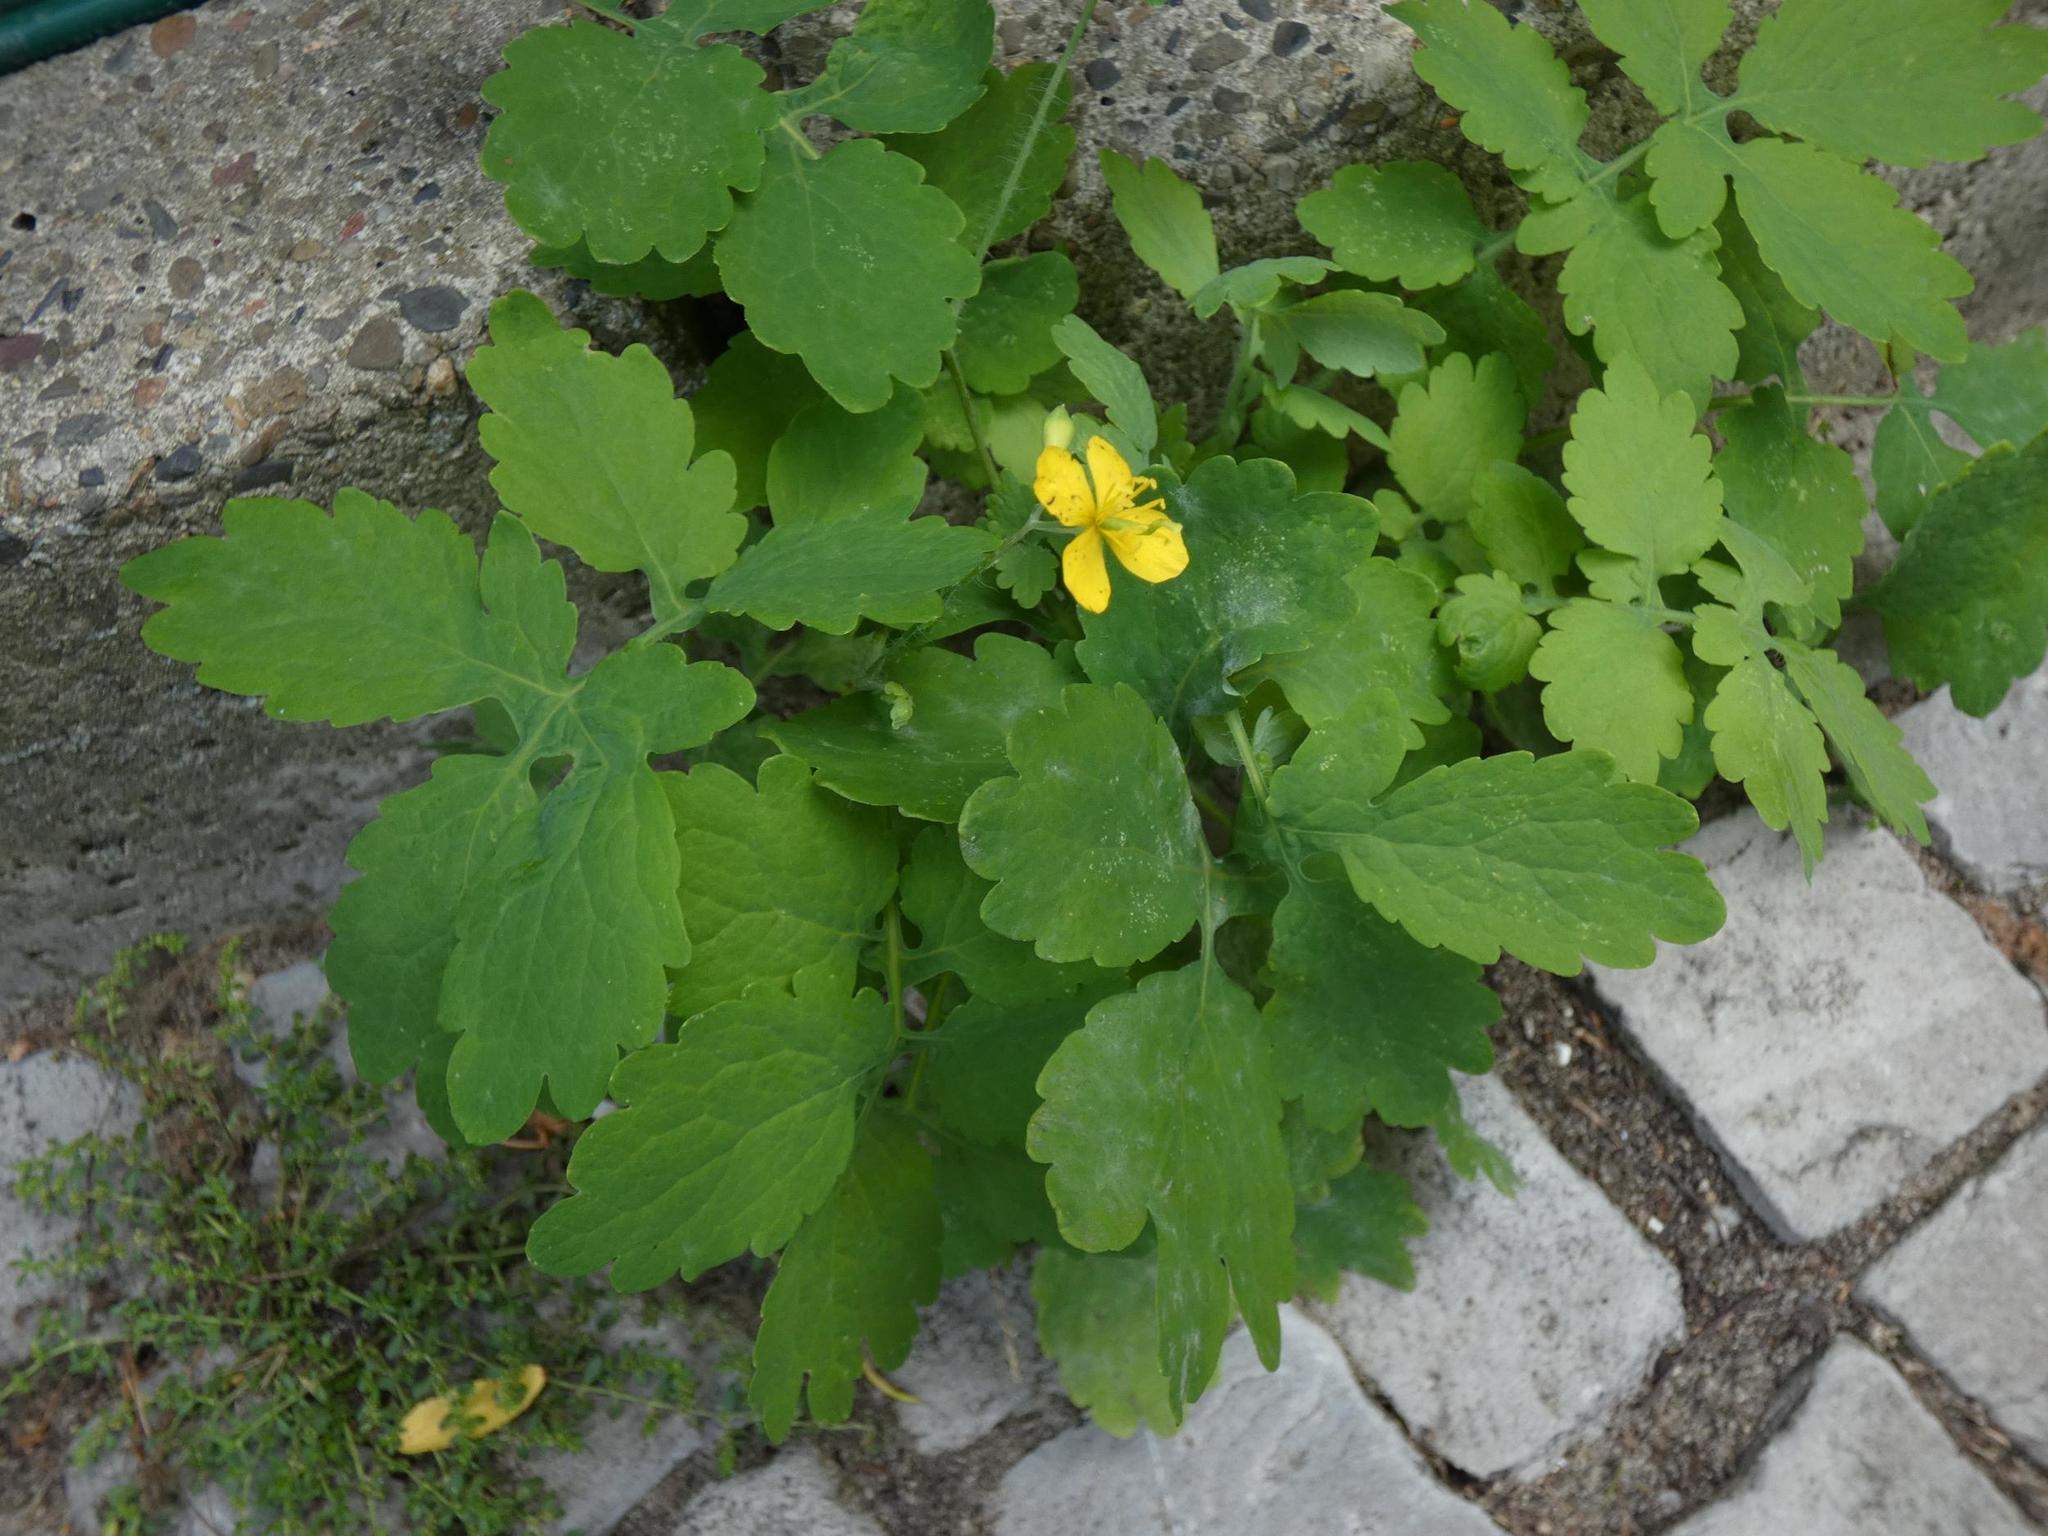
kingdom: Plantae
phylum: Tracheophyta
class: Magnoliopsida
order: Ranunculales
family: Papaveraceae
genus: Chelidonium
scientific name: Chelidonium majus
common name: Greater celandine
